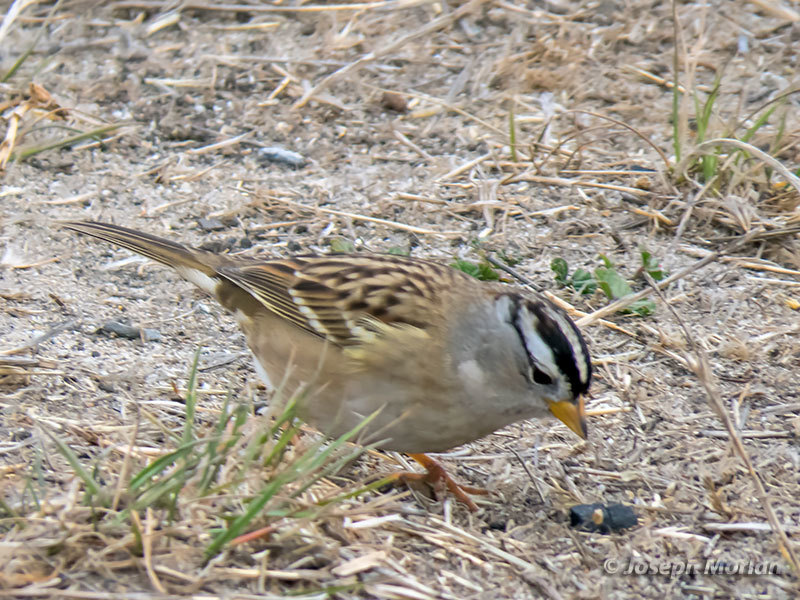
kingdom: Animalia
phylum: Chordata
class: Aves
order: Passeriformes
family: Passerellidae
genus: Zonotrichia
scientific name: Zonotrichia leucophrys
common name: White-crowned sparrow
